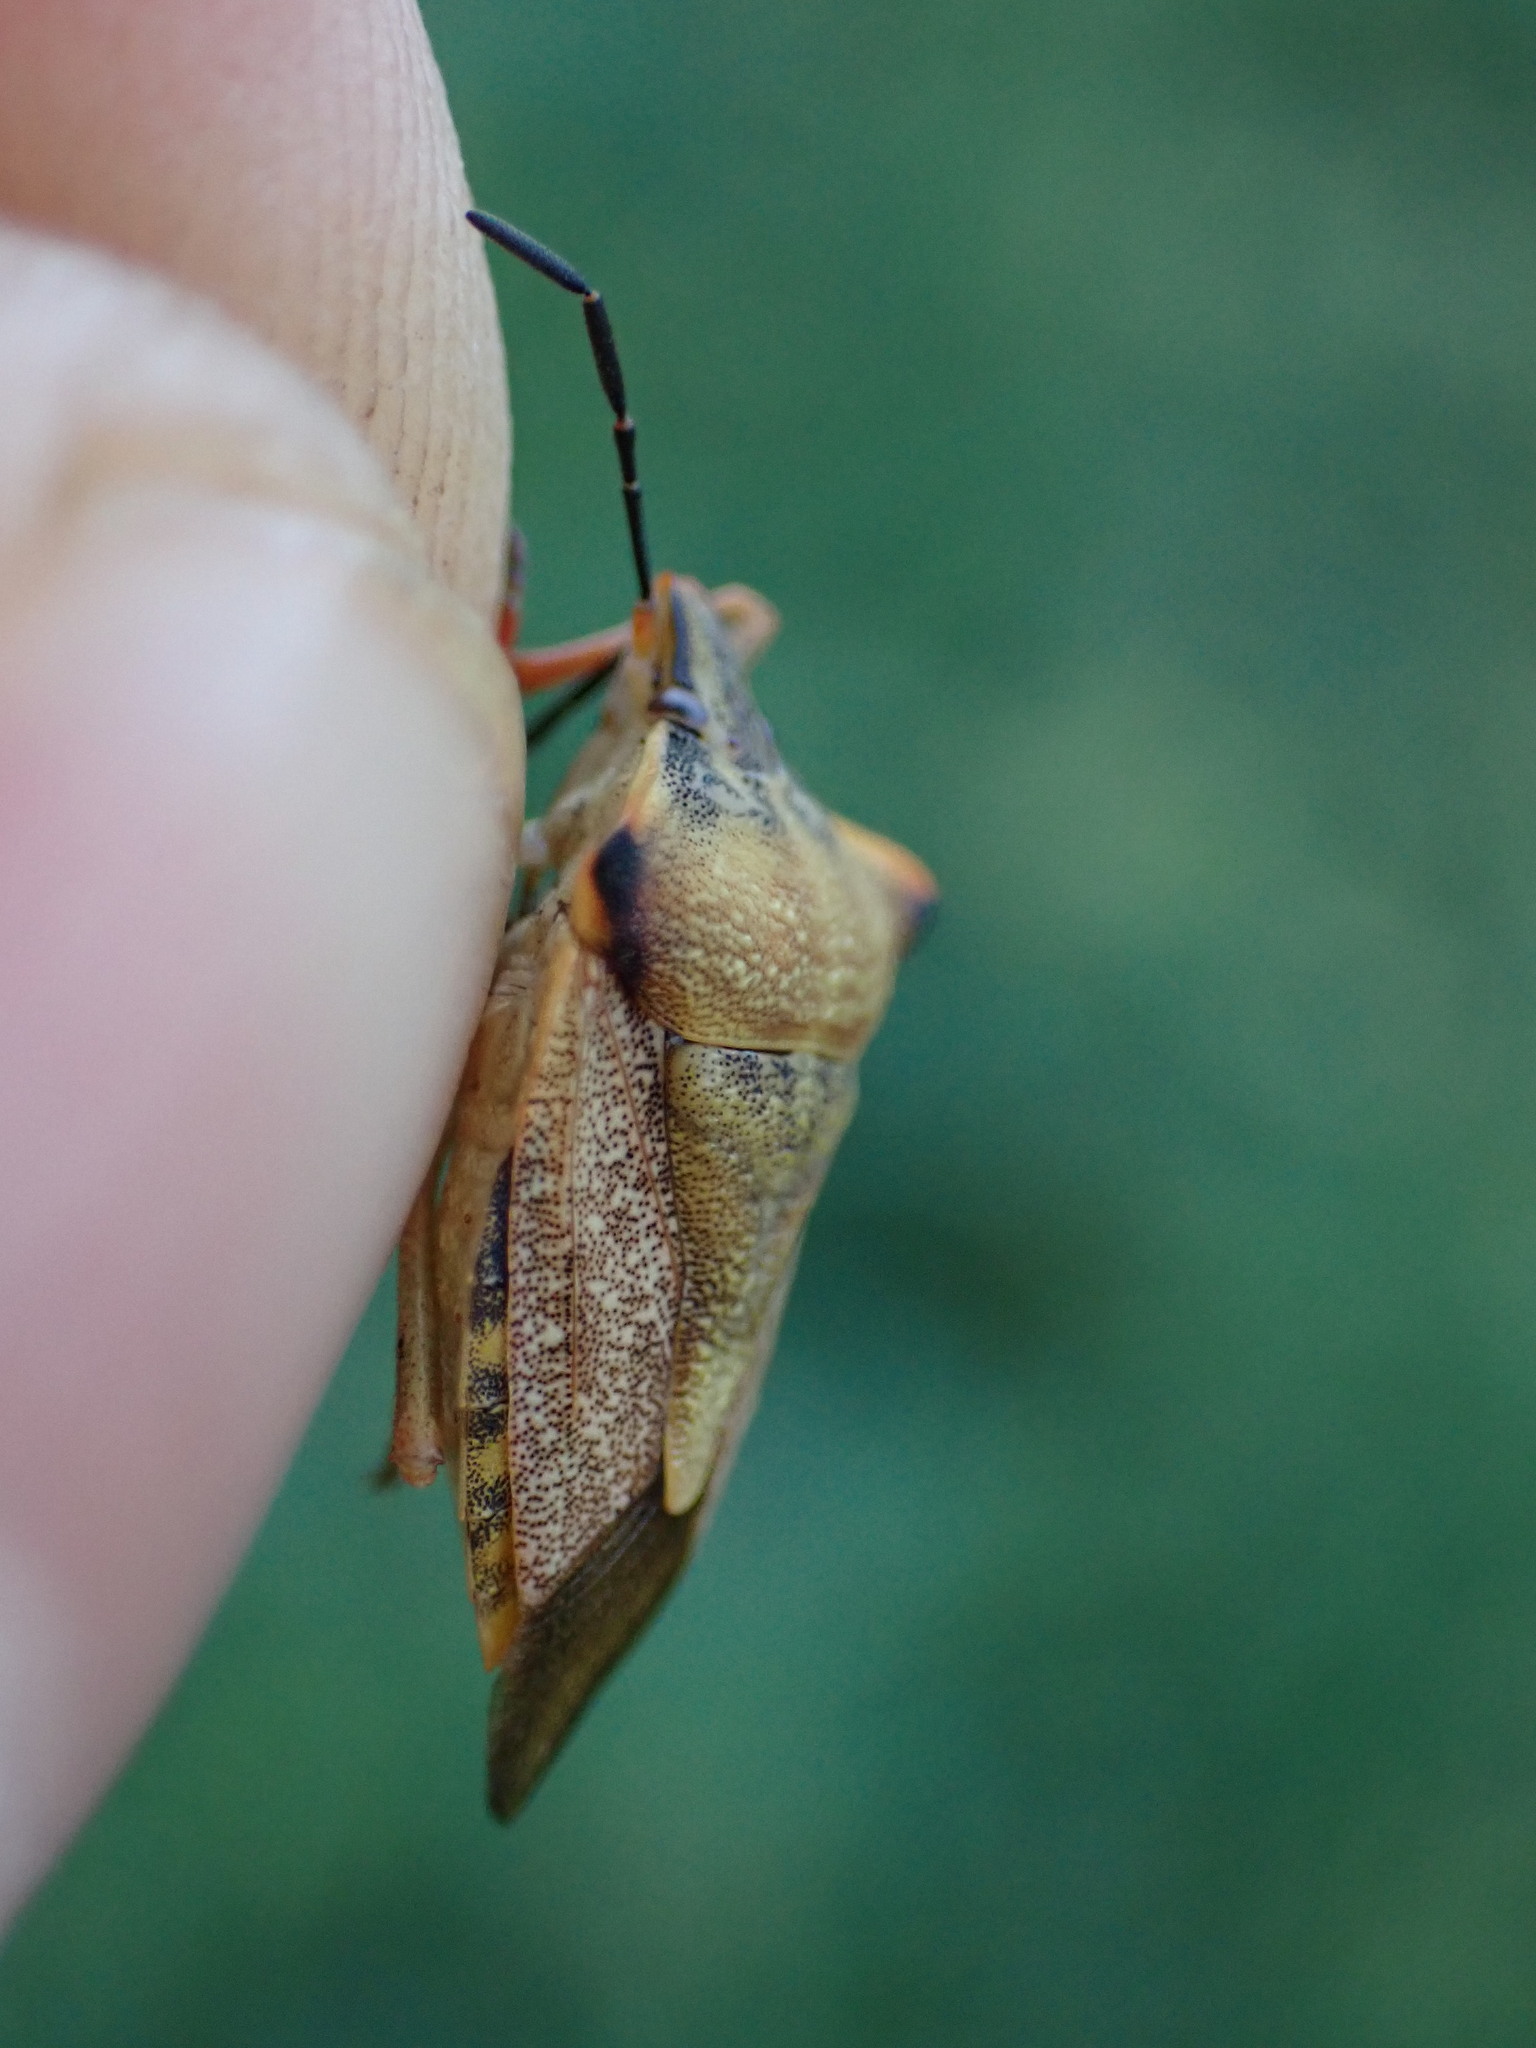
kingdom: Animalia
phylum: Arthropoda
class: Insecta
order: Hemiptera
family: Pentatomidae
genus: Carpocoris
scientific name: Carpocoris mediterraneus
